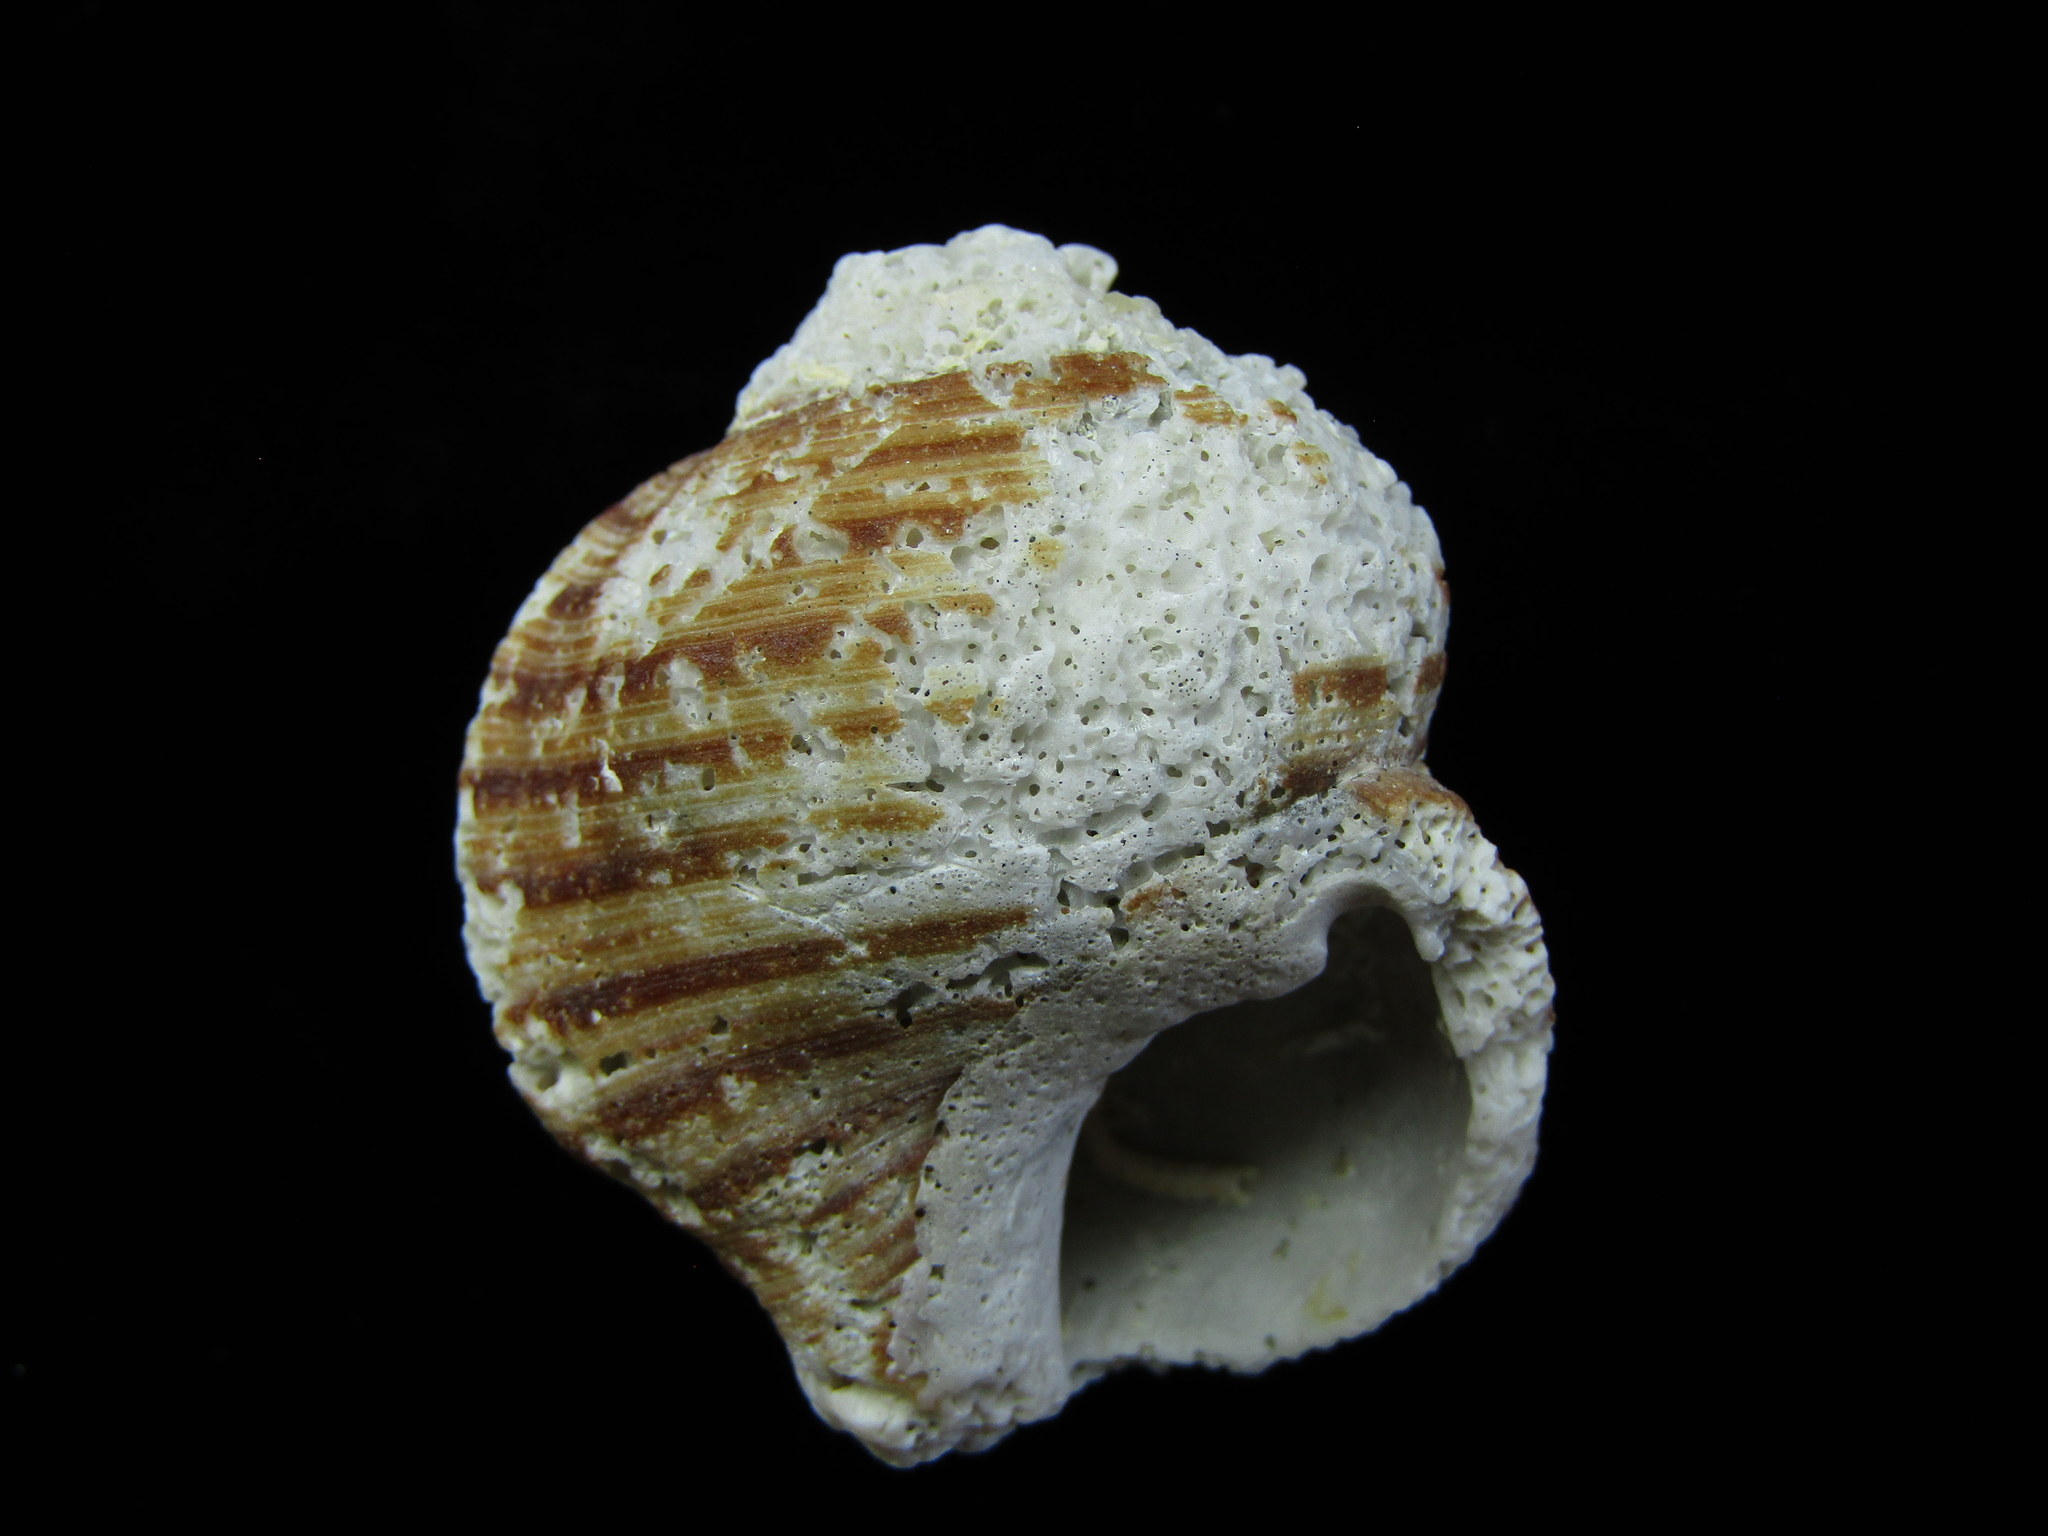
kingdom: Animalia
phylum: Mollusca
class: Gastropoda
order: Littorinimorpha
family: Cymatiidae
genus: Argobuccinum
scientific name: Argobuccinum pustulosum
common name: Pustular triton
